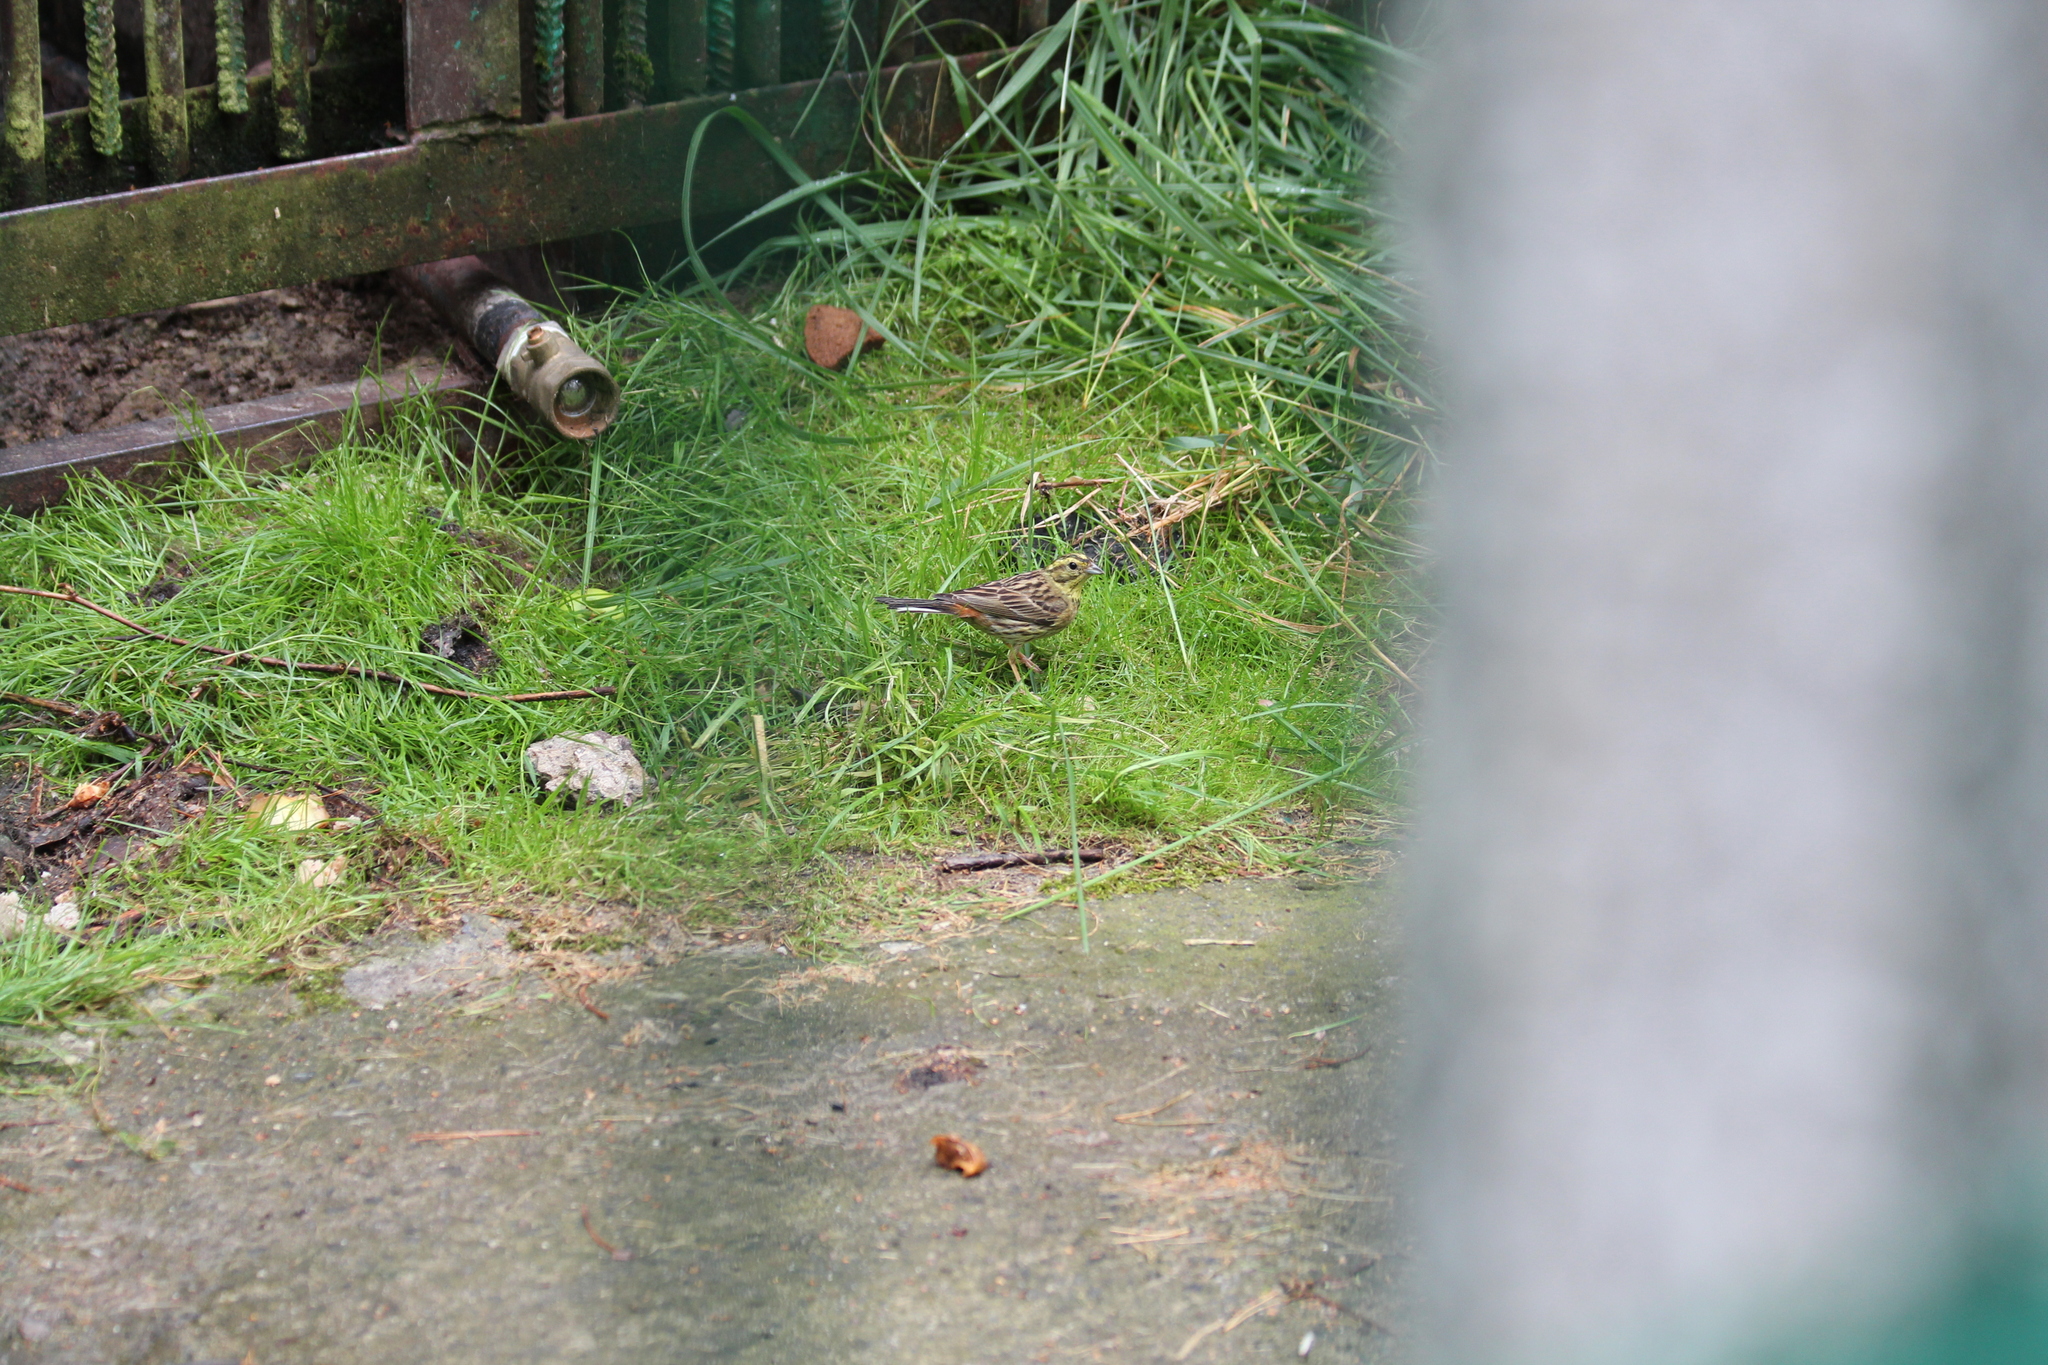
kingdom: Animalia
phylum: Chordata
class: Aves
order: Passeriformes
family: Emberizidae
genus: Emberiza
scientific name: Emberiza citrinella
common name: Yellowhammer
